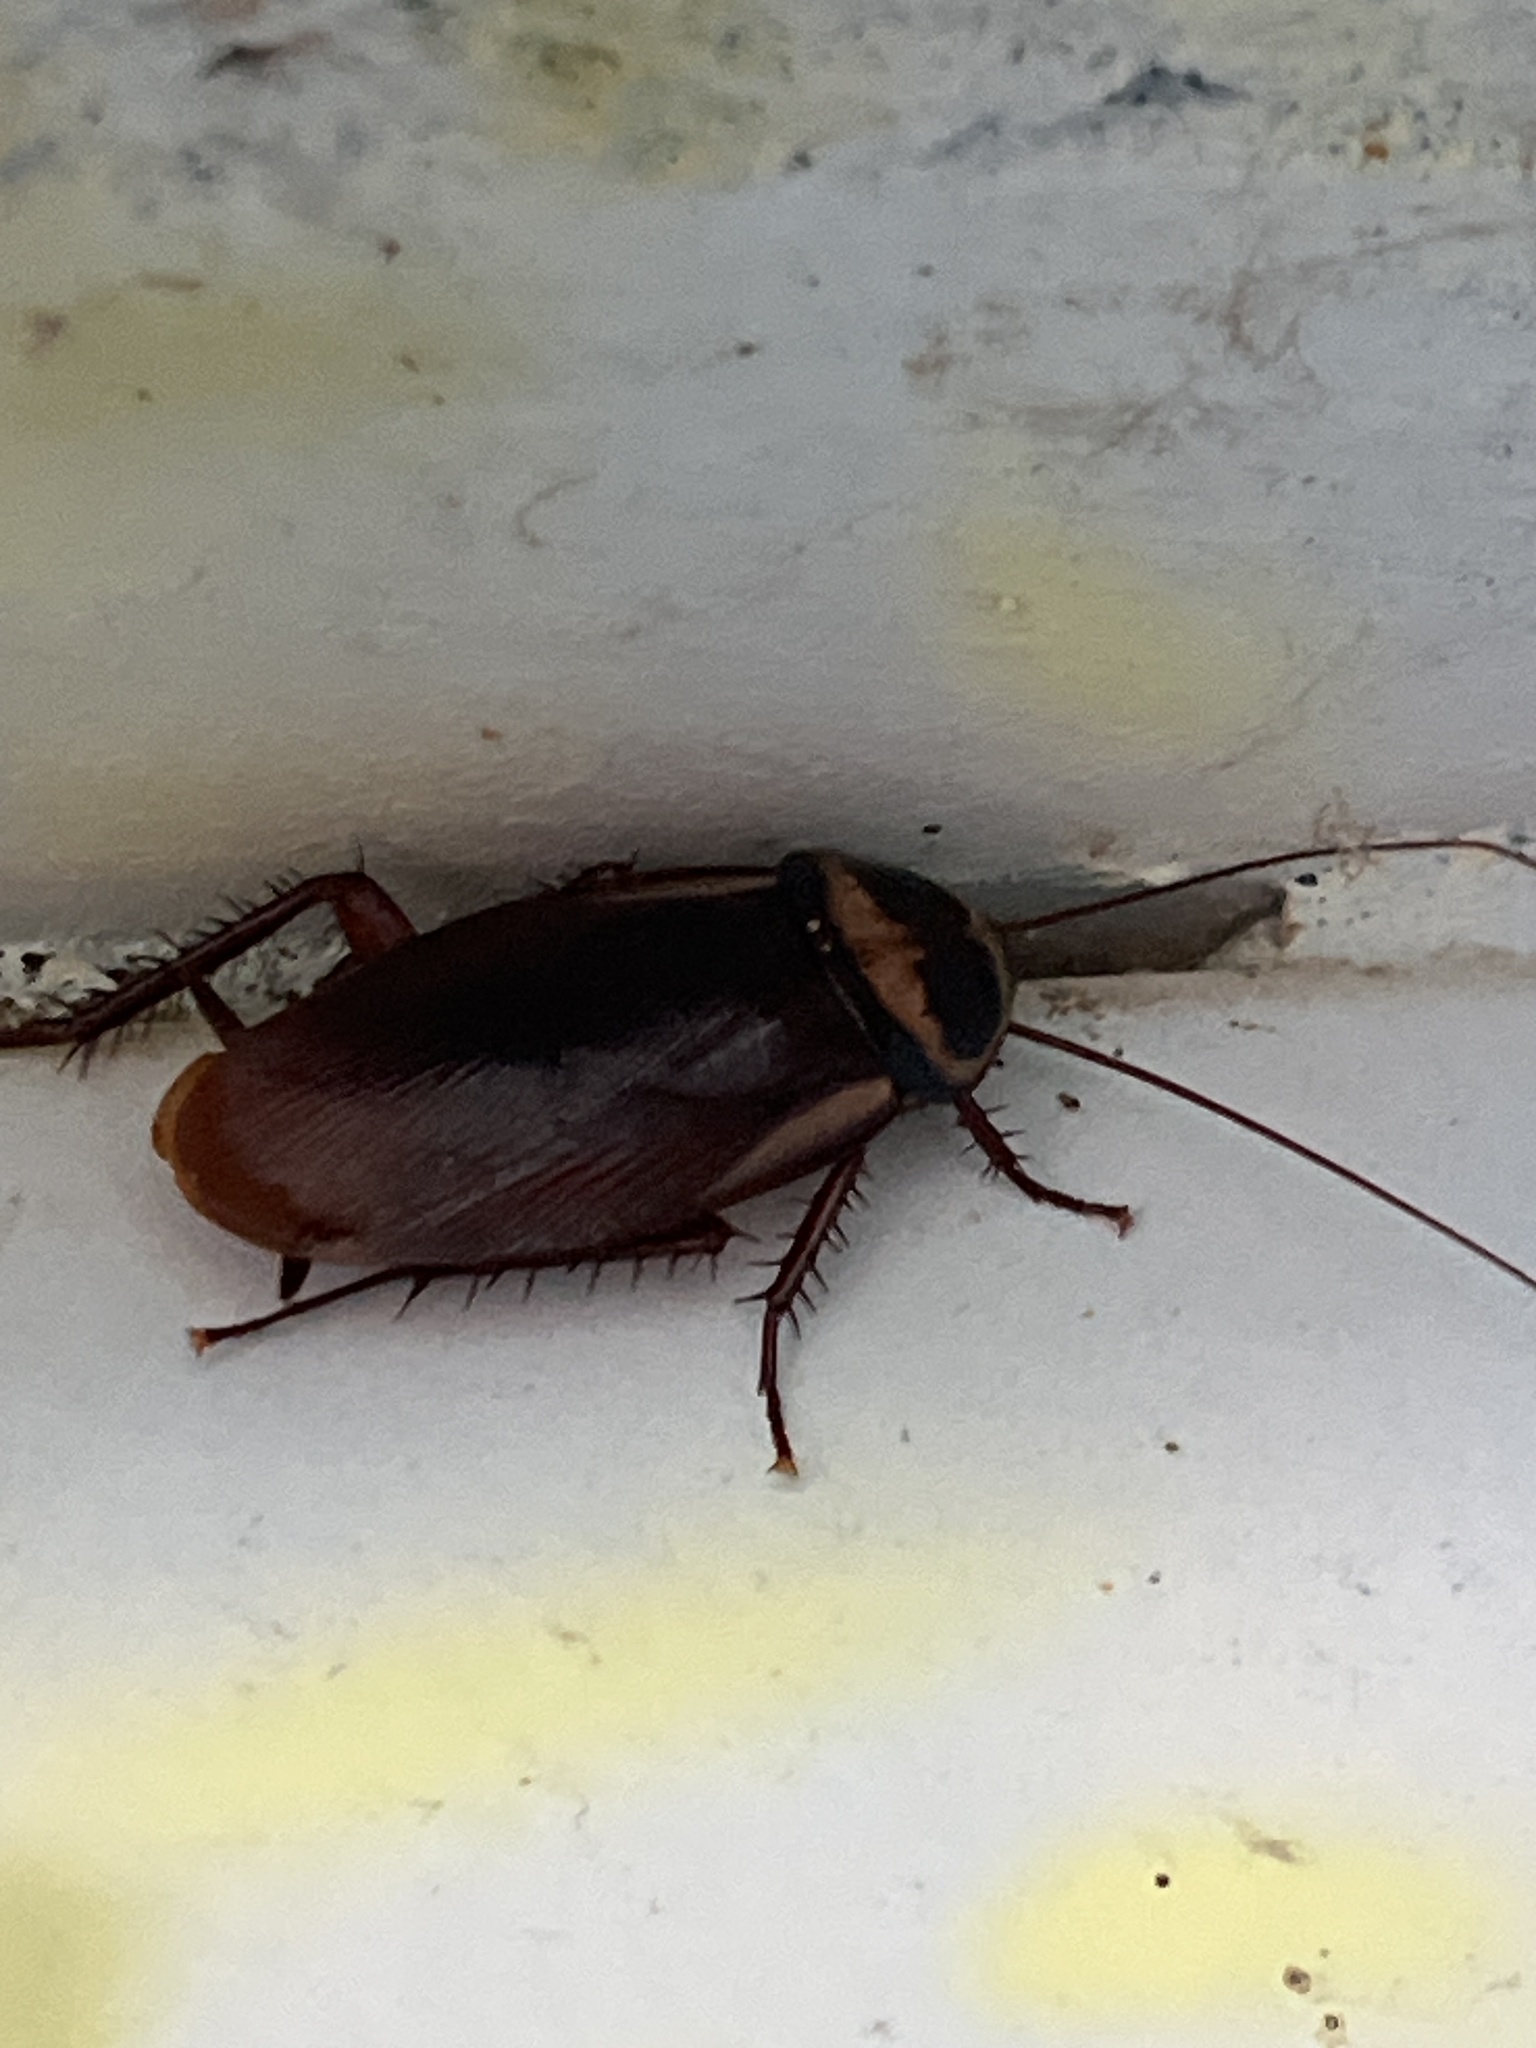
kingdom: Animalia
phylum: Arthropoda
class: Insecta
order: Blattodea
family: Blattidae
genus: Periplaneta
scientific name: Periplaneta australasiae
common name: Australian cockroach
